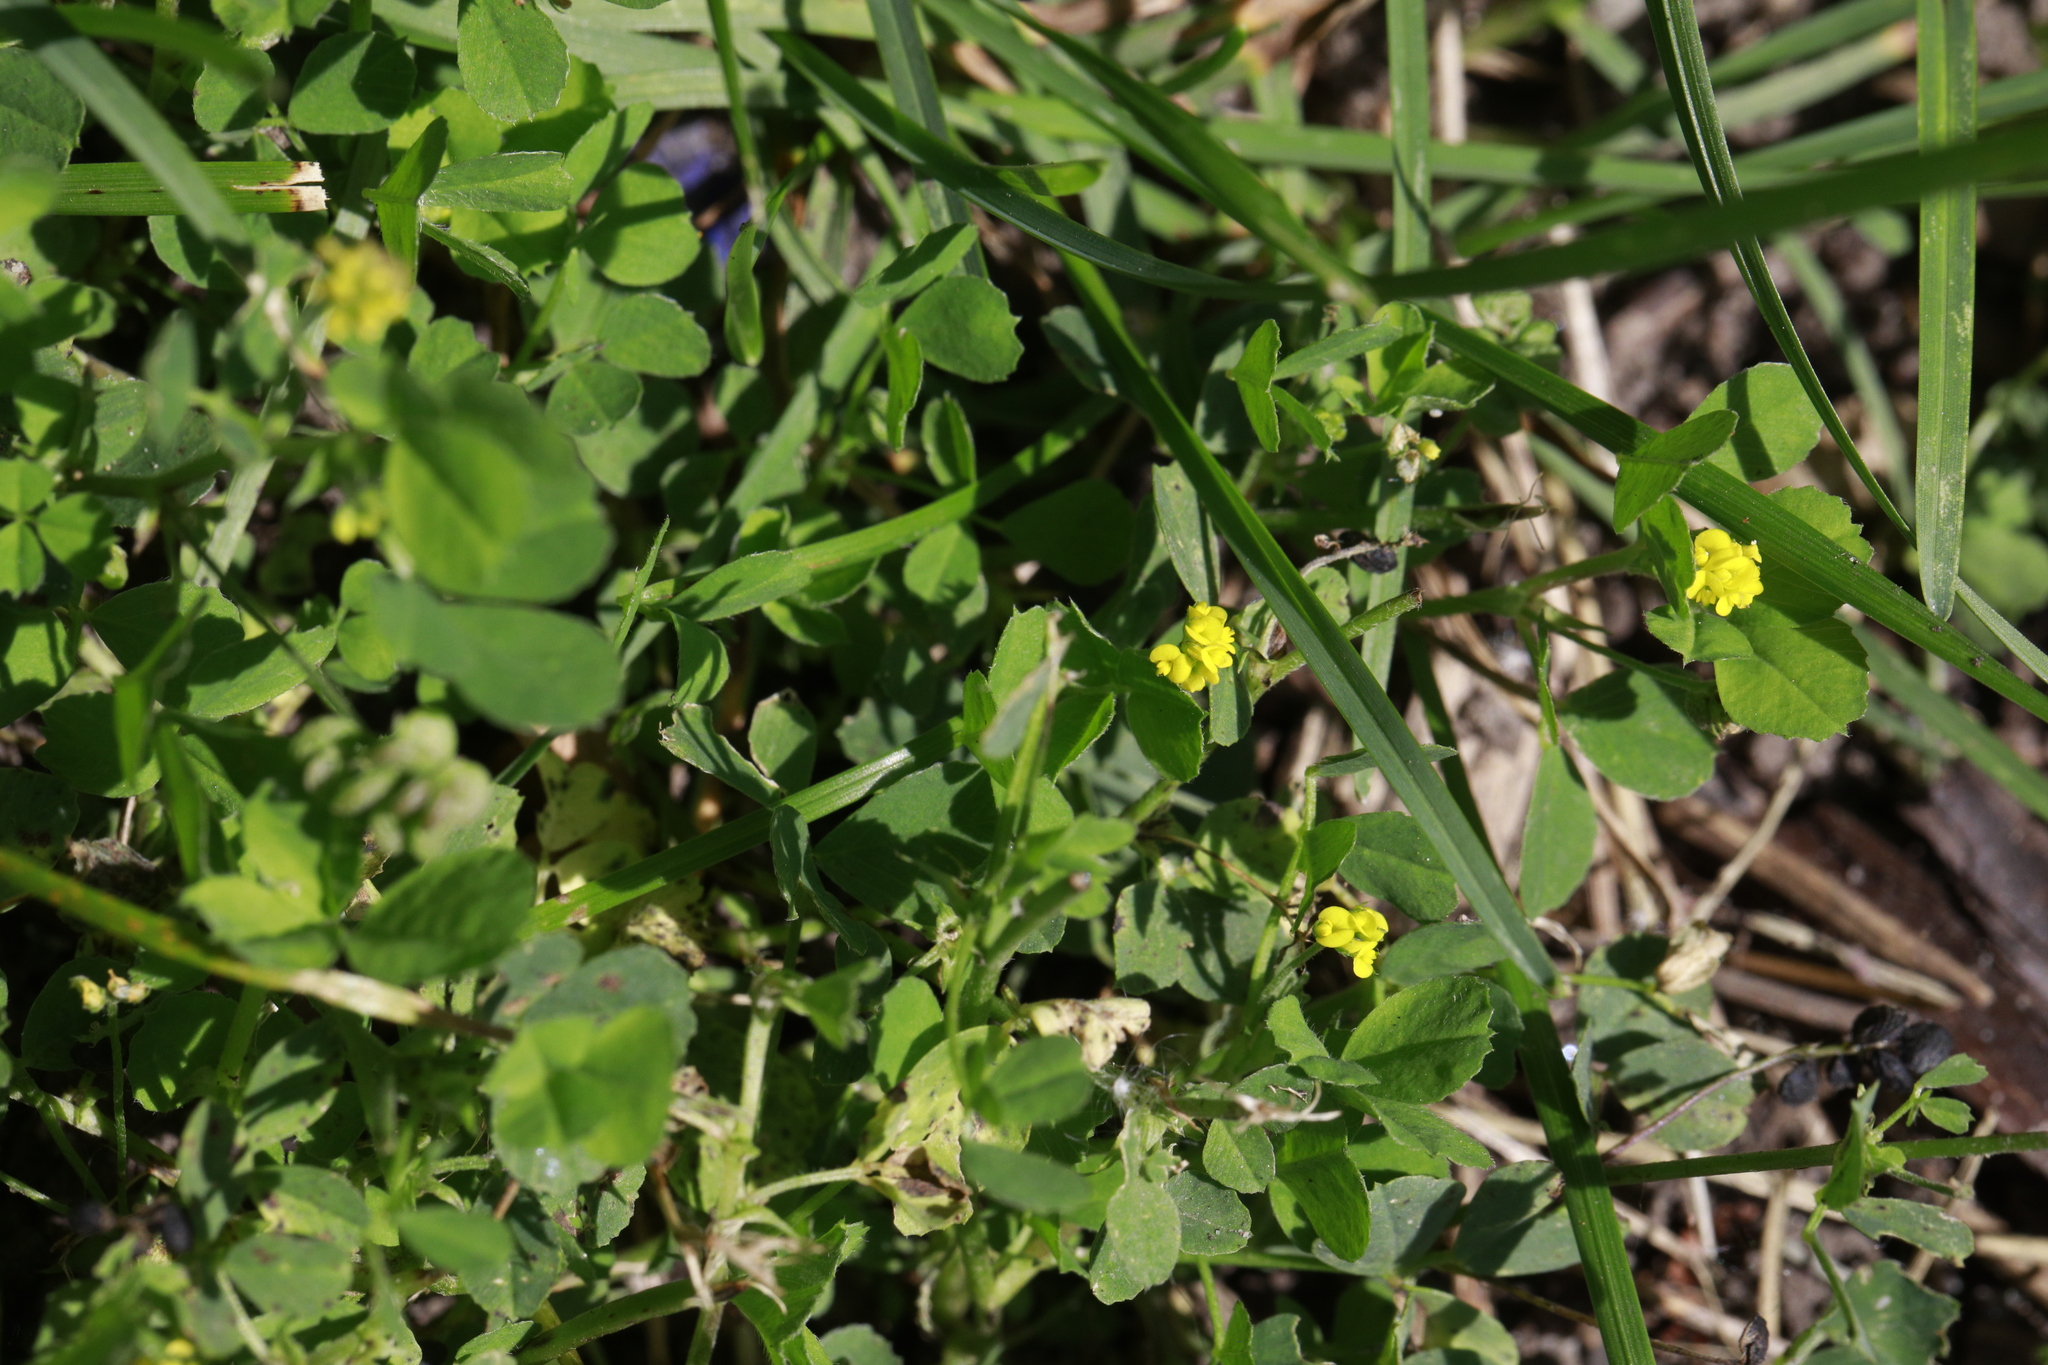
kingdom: Plantae
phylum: Tracheophyta
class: Magnoliopsida
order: Fabales
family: Fabaceae
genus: Medicago
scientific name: Medicago lupulina
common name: Black medick
